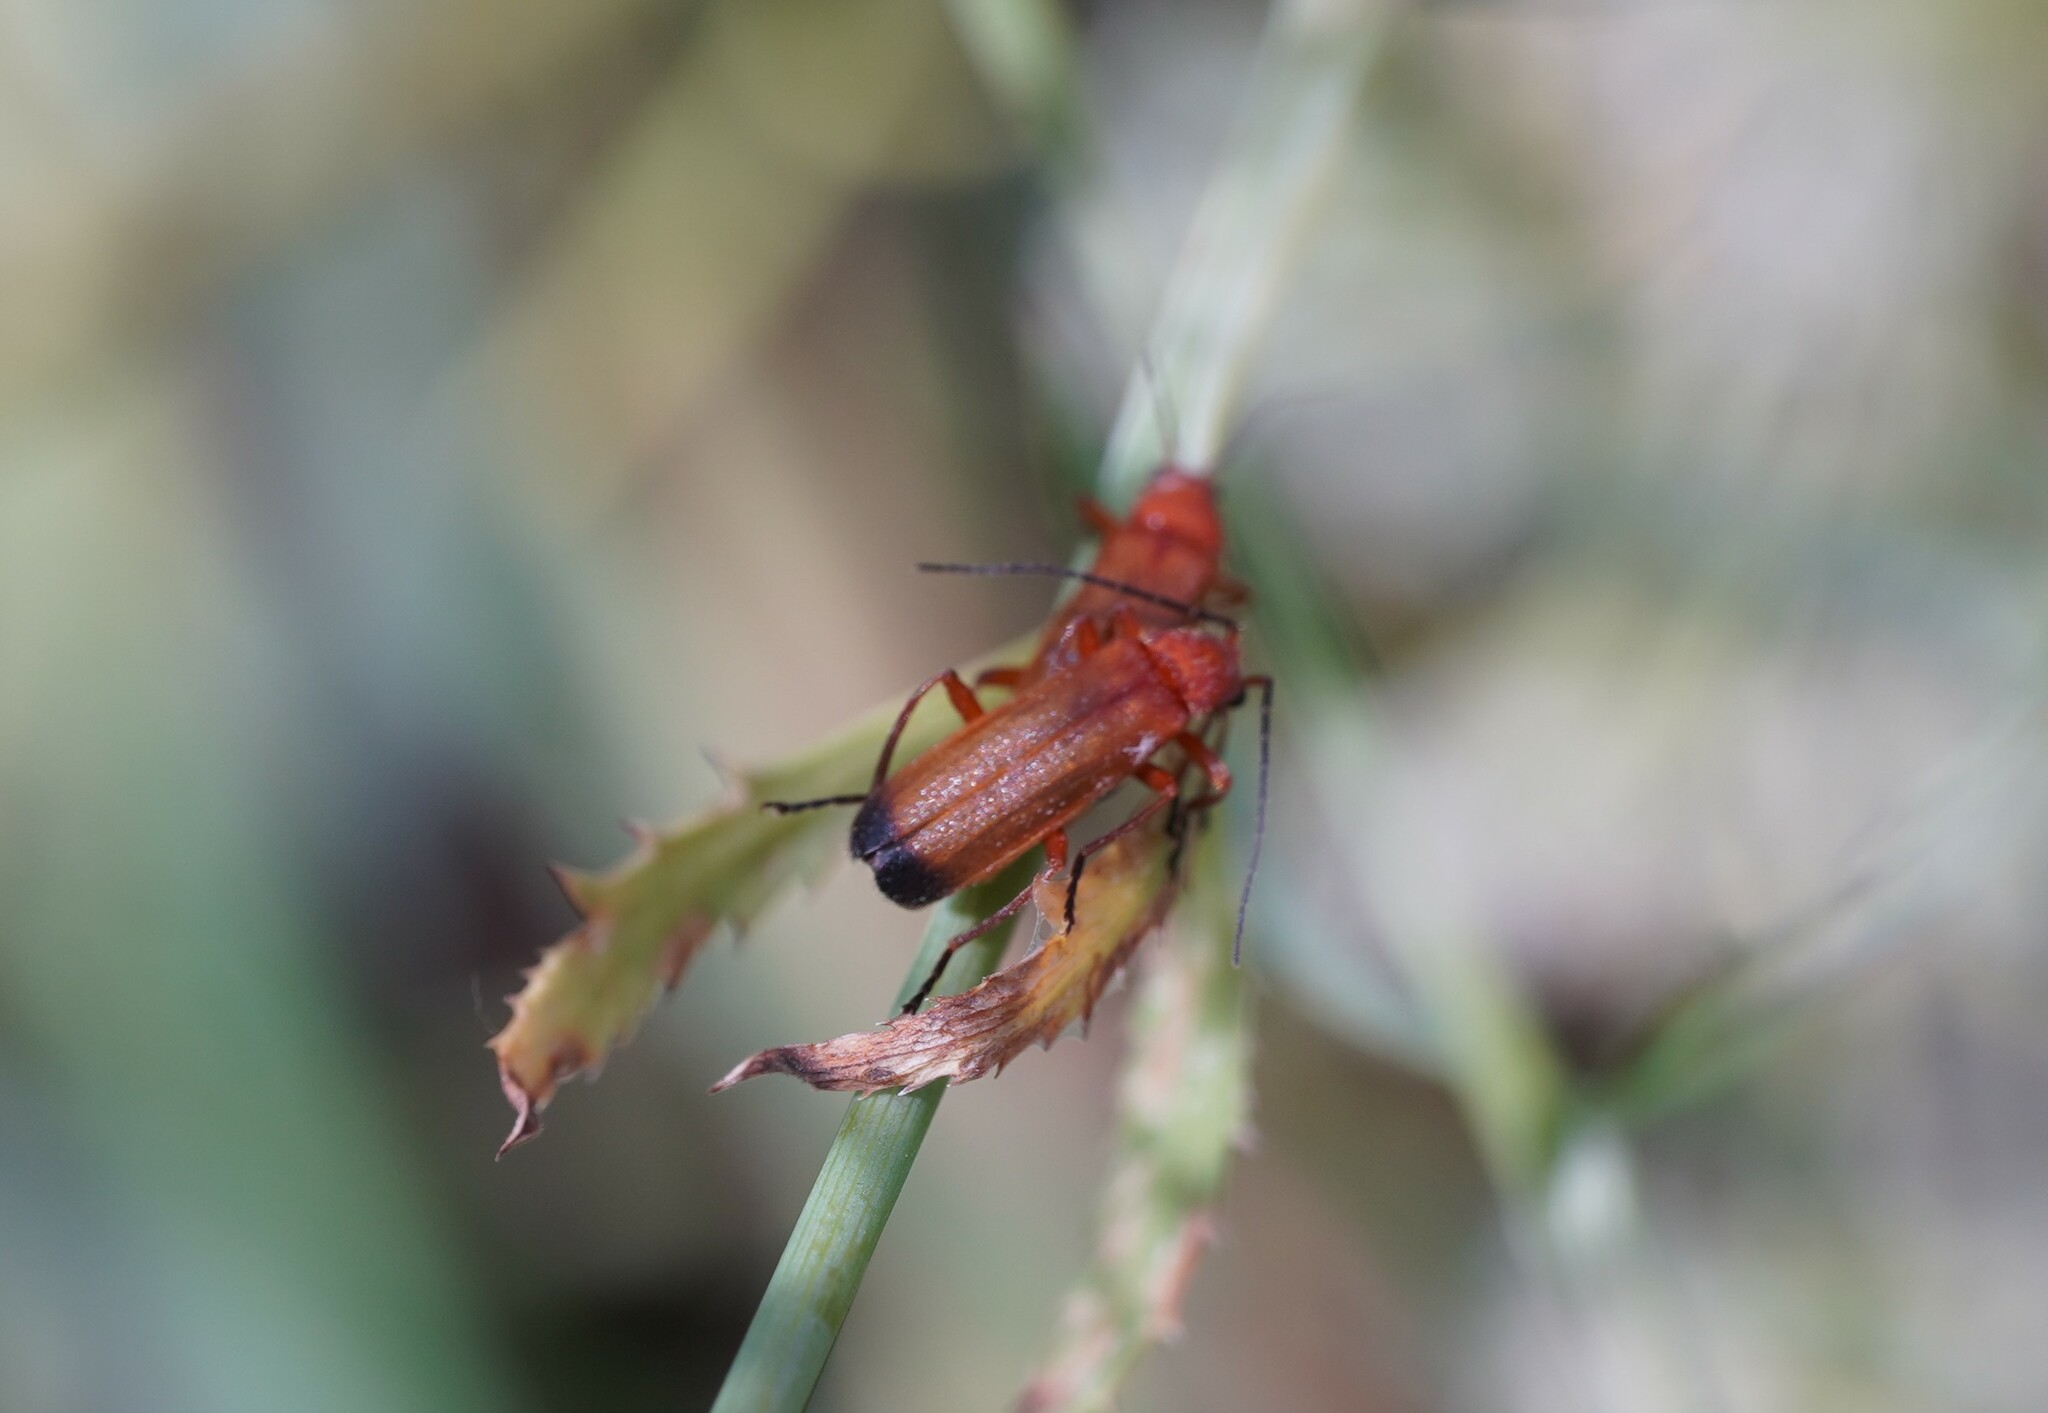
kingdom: Animalia
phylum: Arthropoda
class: Insecta
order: Coleoptera
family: Cantharidae
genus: Rhagonycha
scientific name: Rhagonycha fulva
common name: Common red soldier beetle
